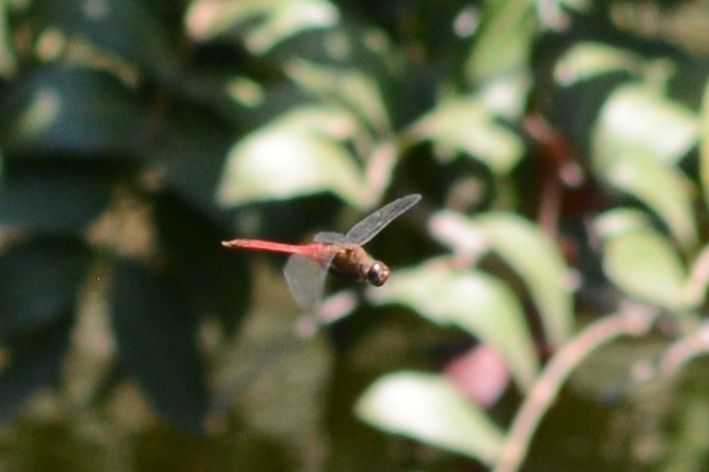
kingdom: Animalia
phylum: Arthropoda
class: Insecta
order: Odonata
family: Libellulidae
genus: Brachymesia
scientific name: Brachymesia furcata
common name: Red-taled pennant
